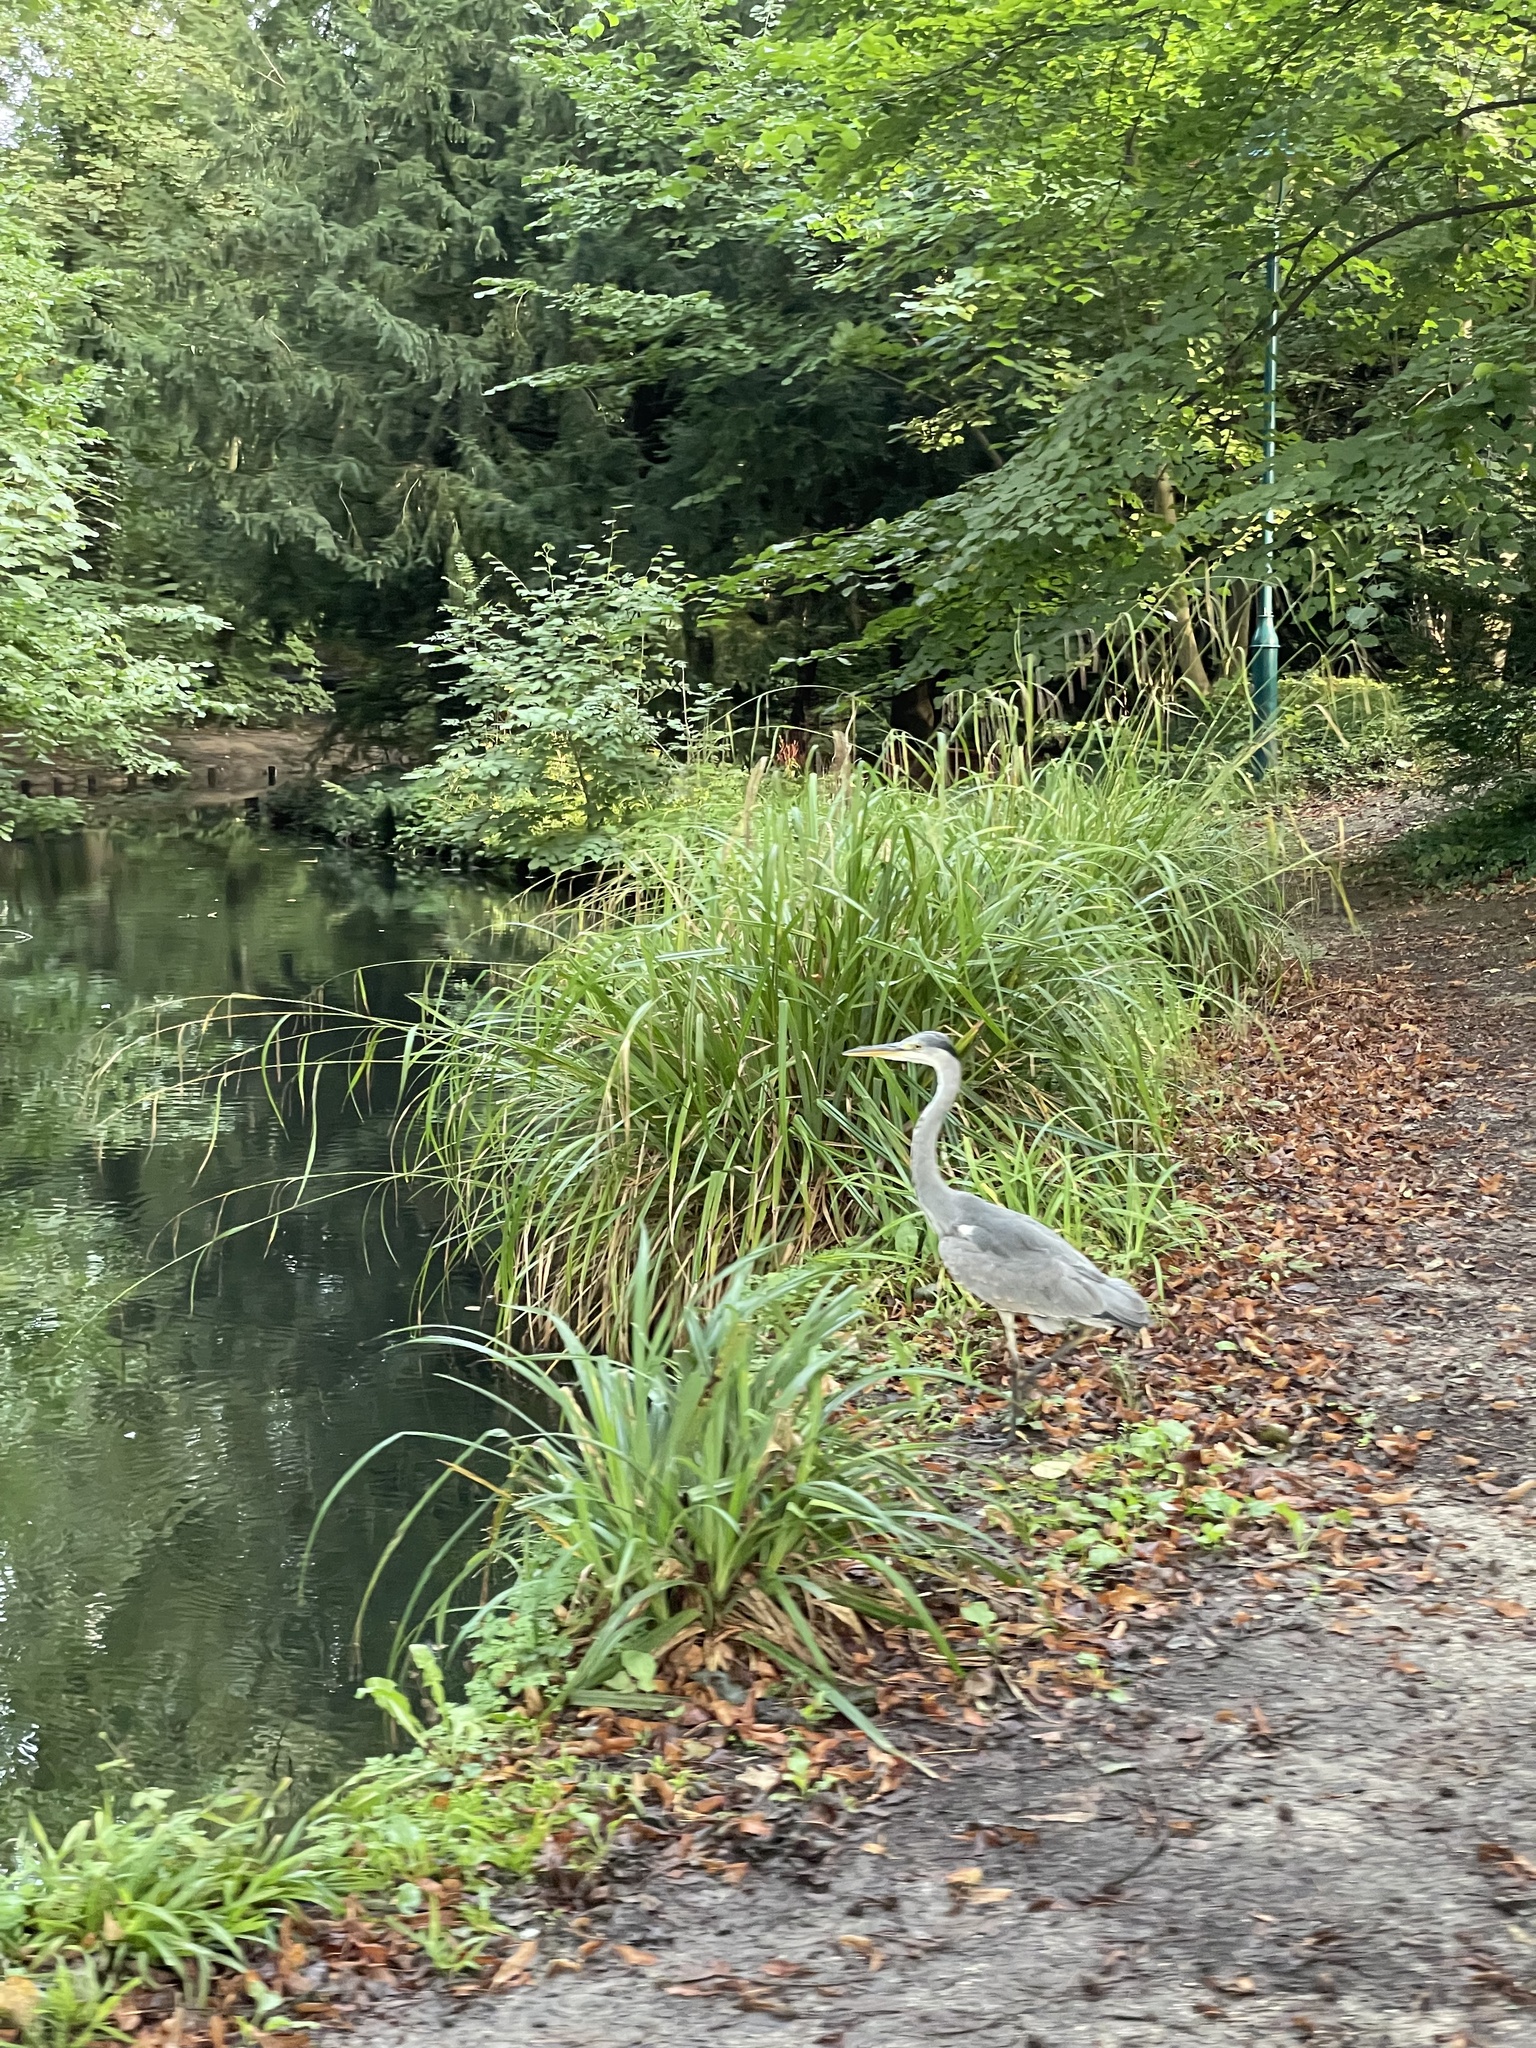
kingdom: Animalia
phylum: Chordata
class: Aves
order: Pelecaniformes
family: Ardeidae
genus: Ardea
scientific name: Ardea cinerea
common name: Grey heron
